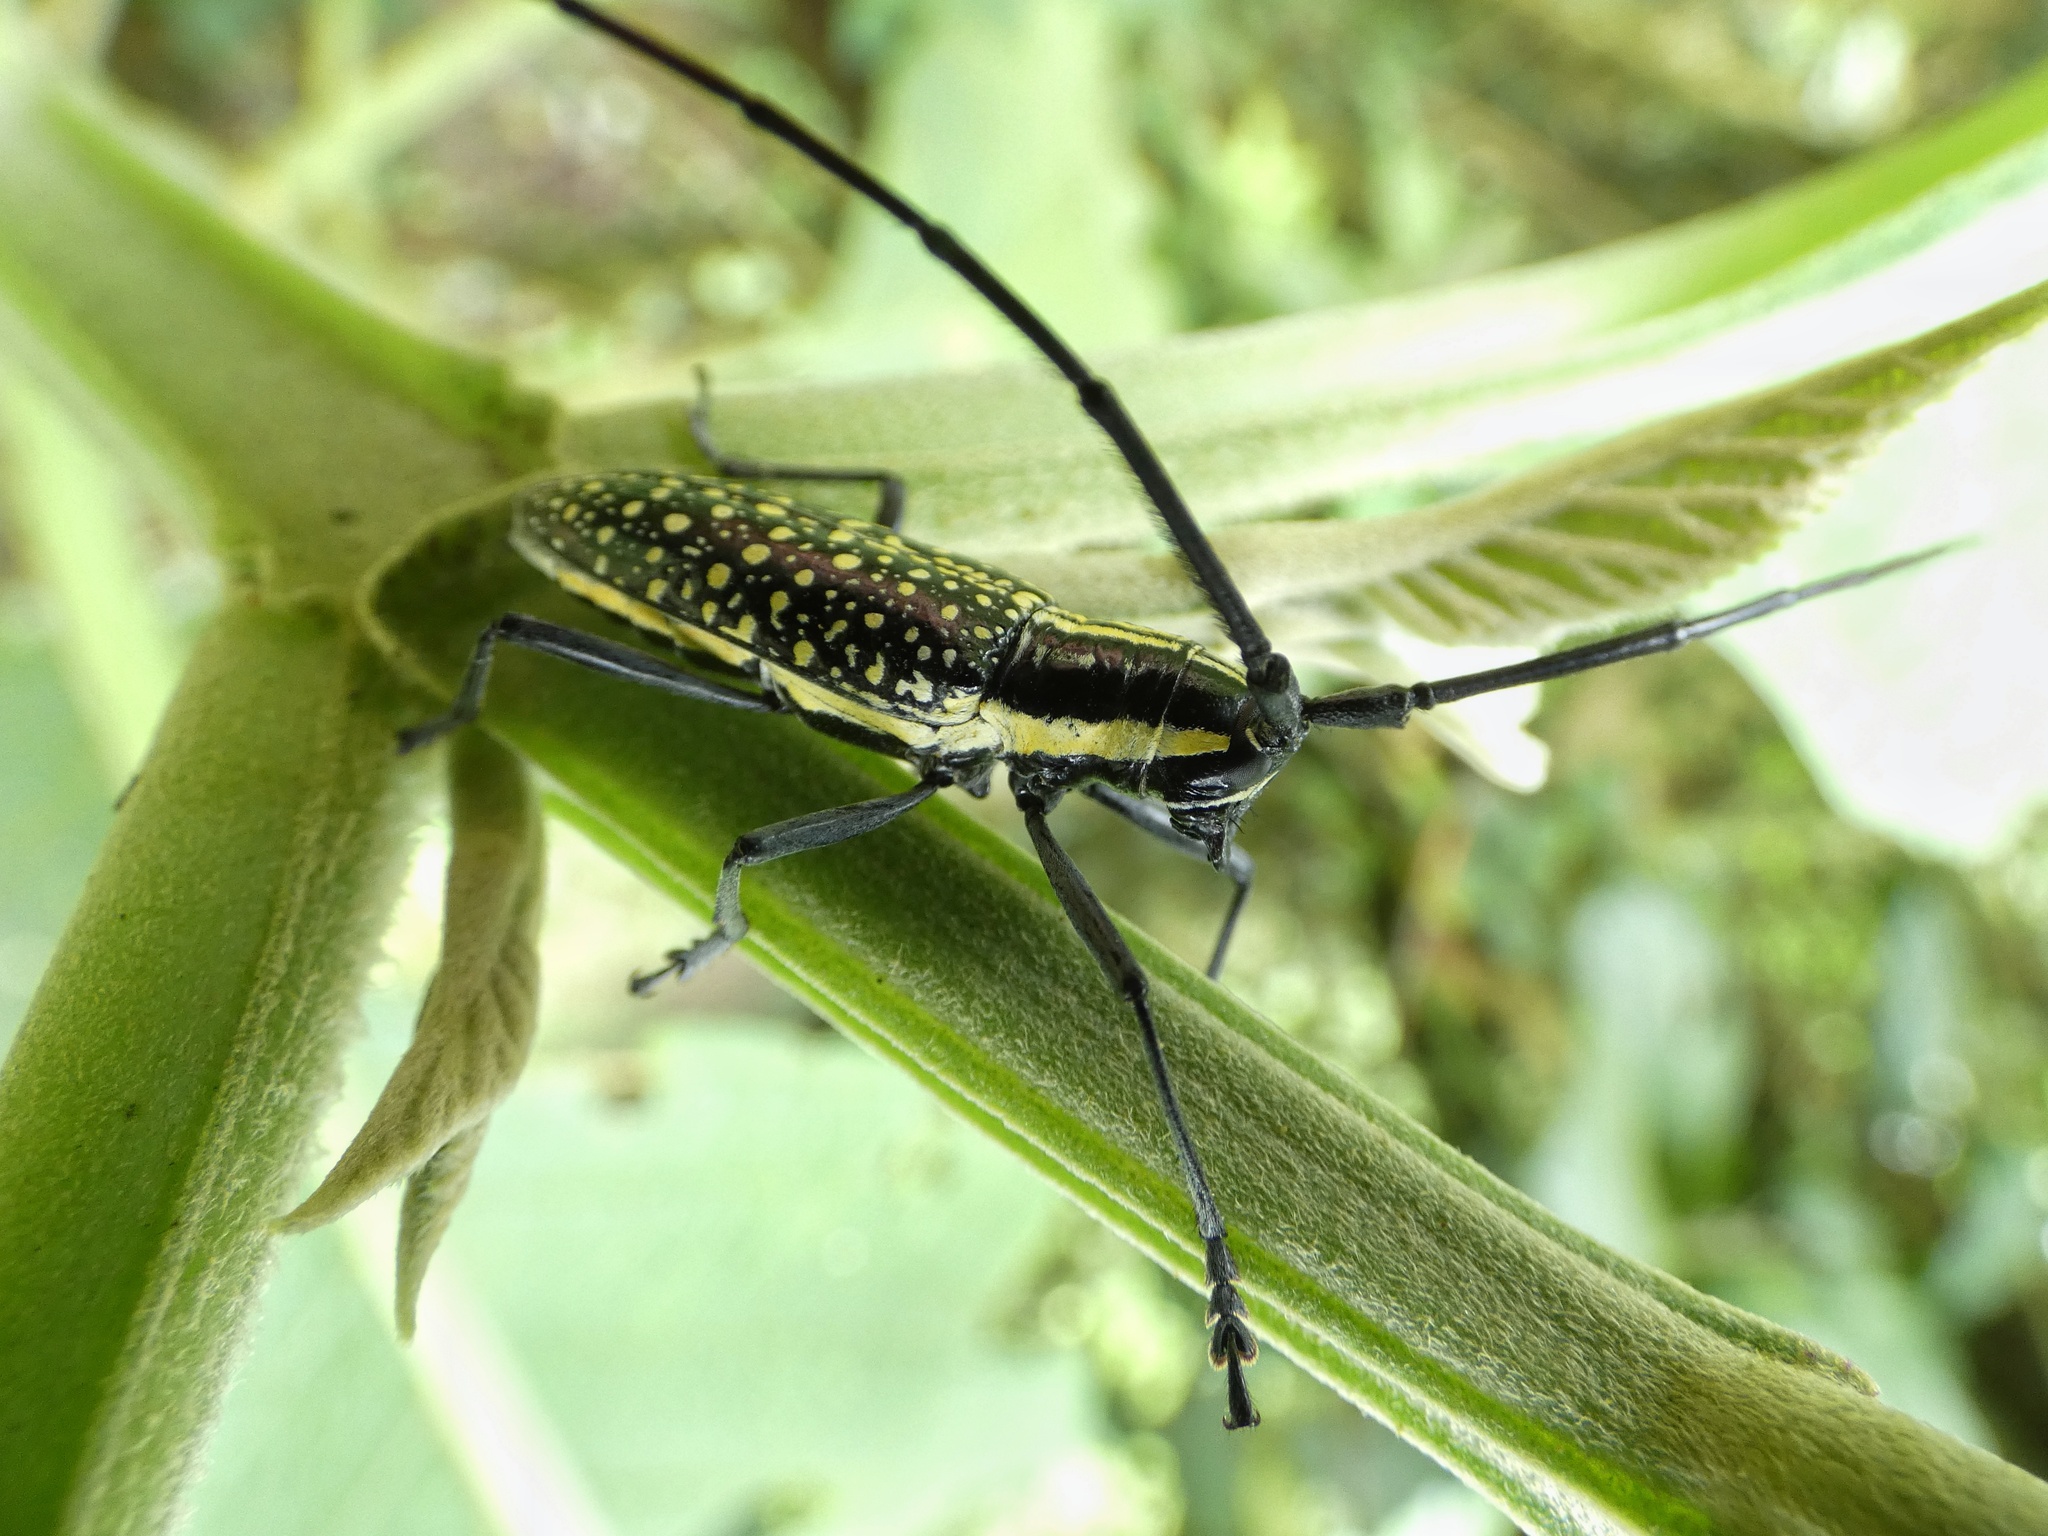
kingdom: Animalia
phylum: Arthropoda
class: Insecta
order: Coleoptera
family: Cerambycidae
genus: Ptychodes
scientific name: Ptychodes taeniotoides
